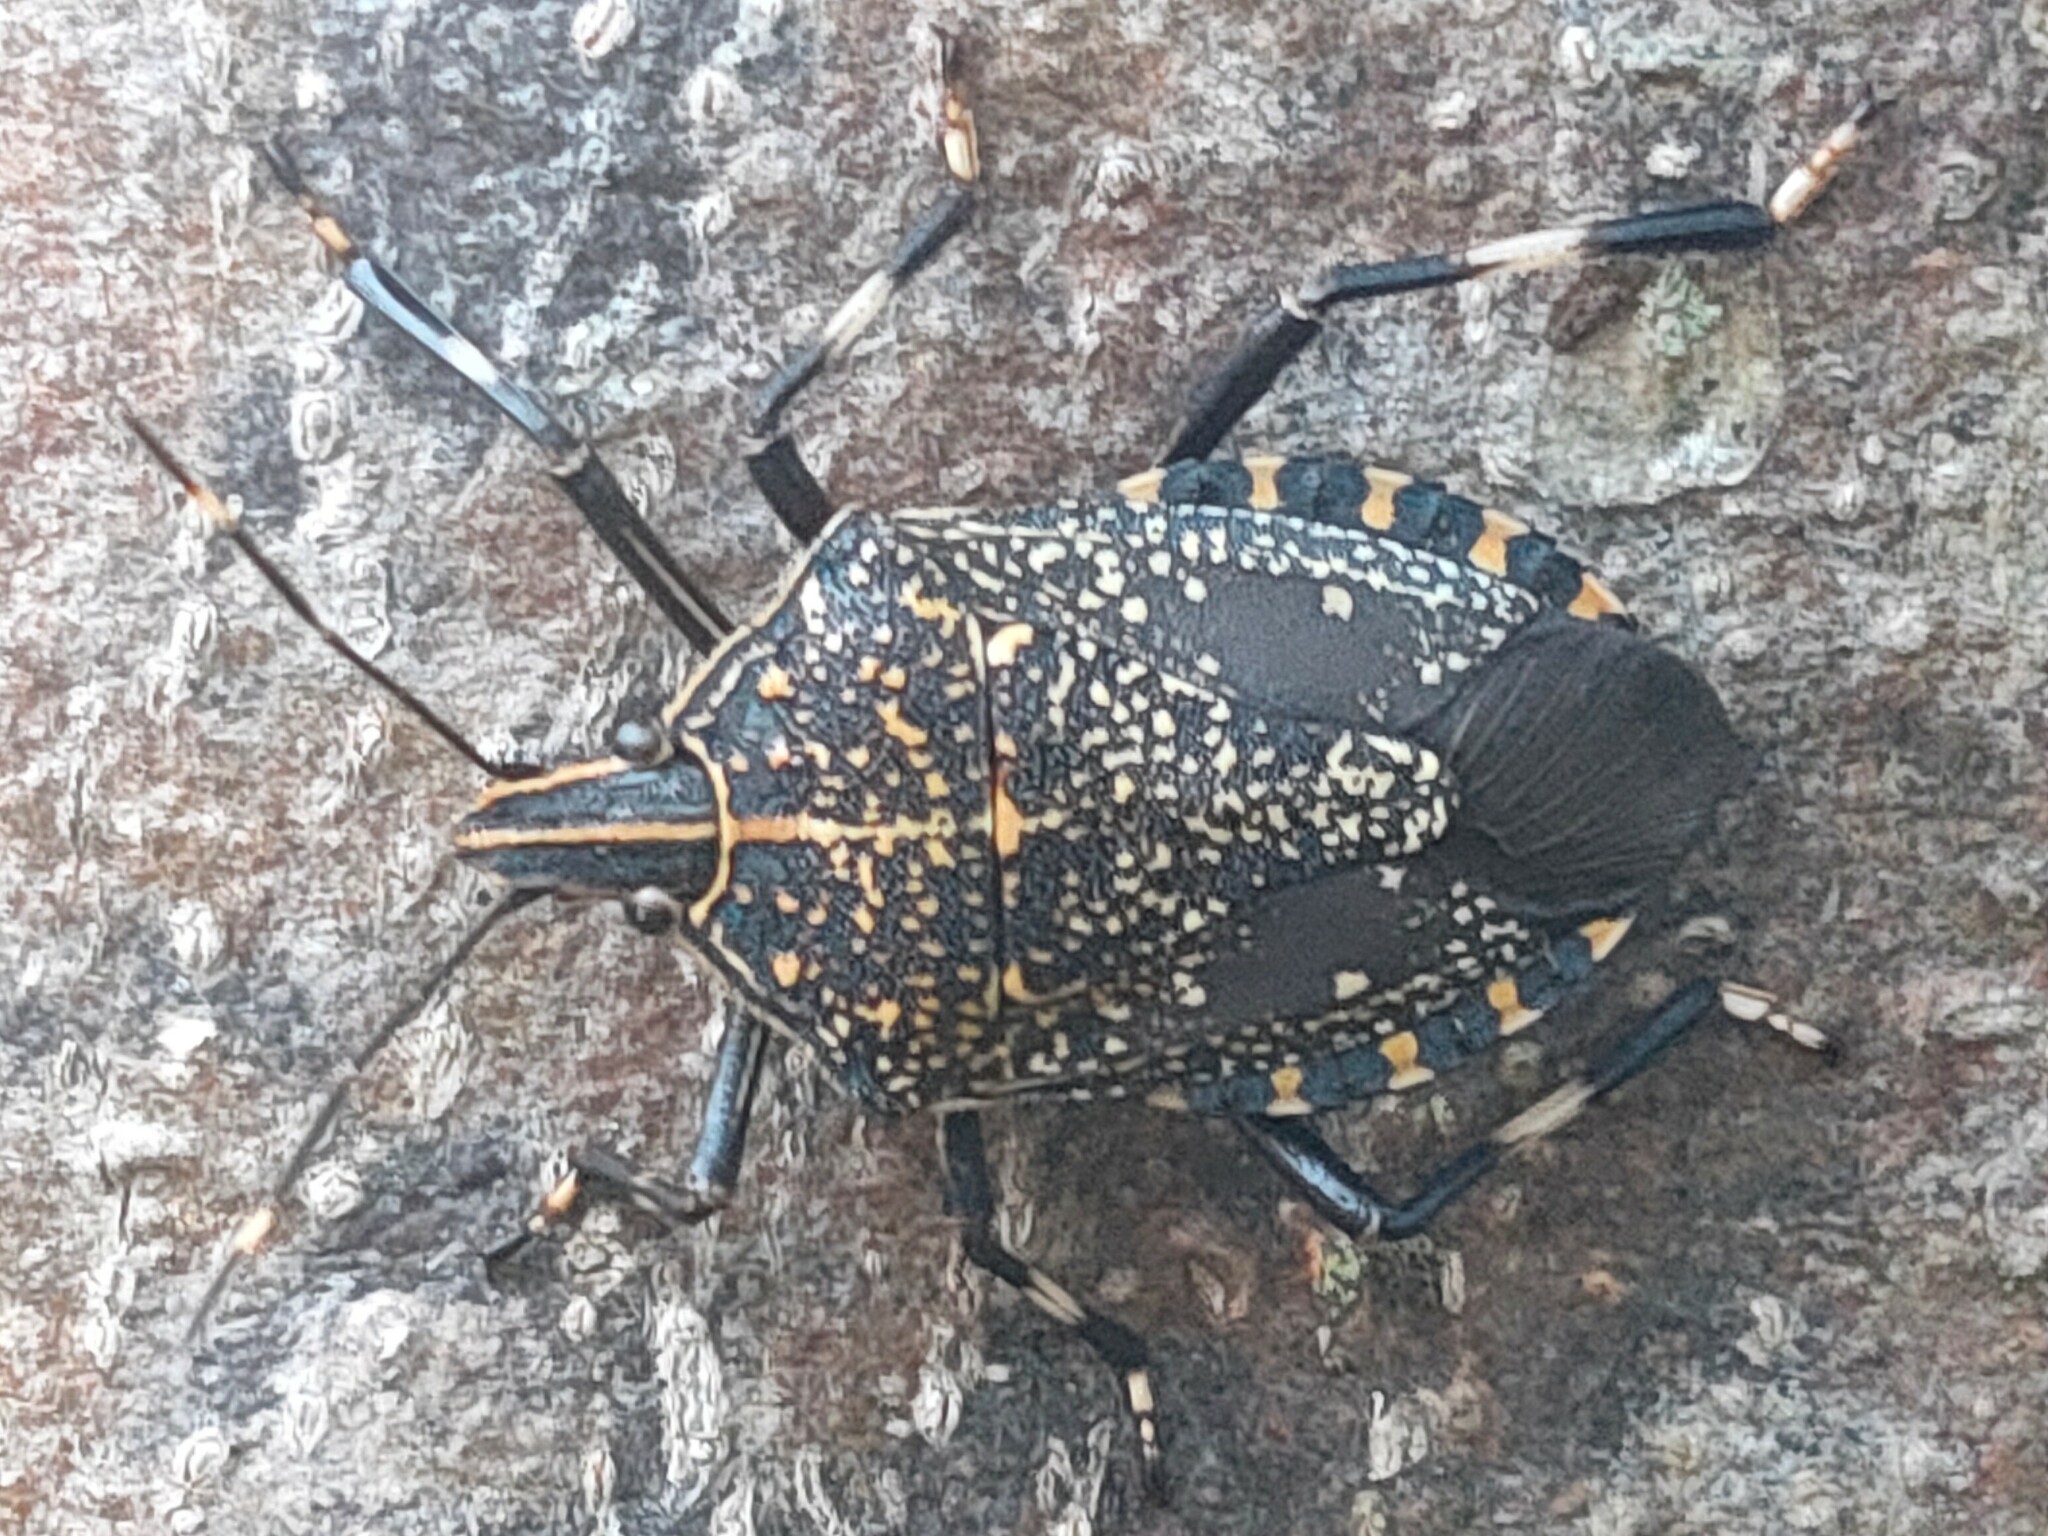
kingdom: Animalia
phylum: Arthropoda
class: Insecta
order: Hemiptera
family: Pentatomidae
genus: Erthesina
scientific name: Erthesina fullo
